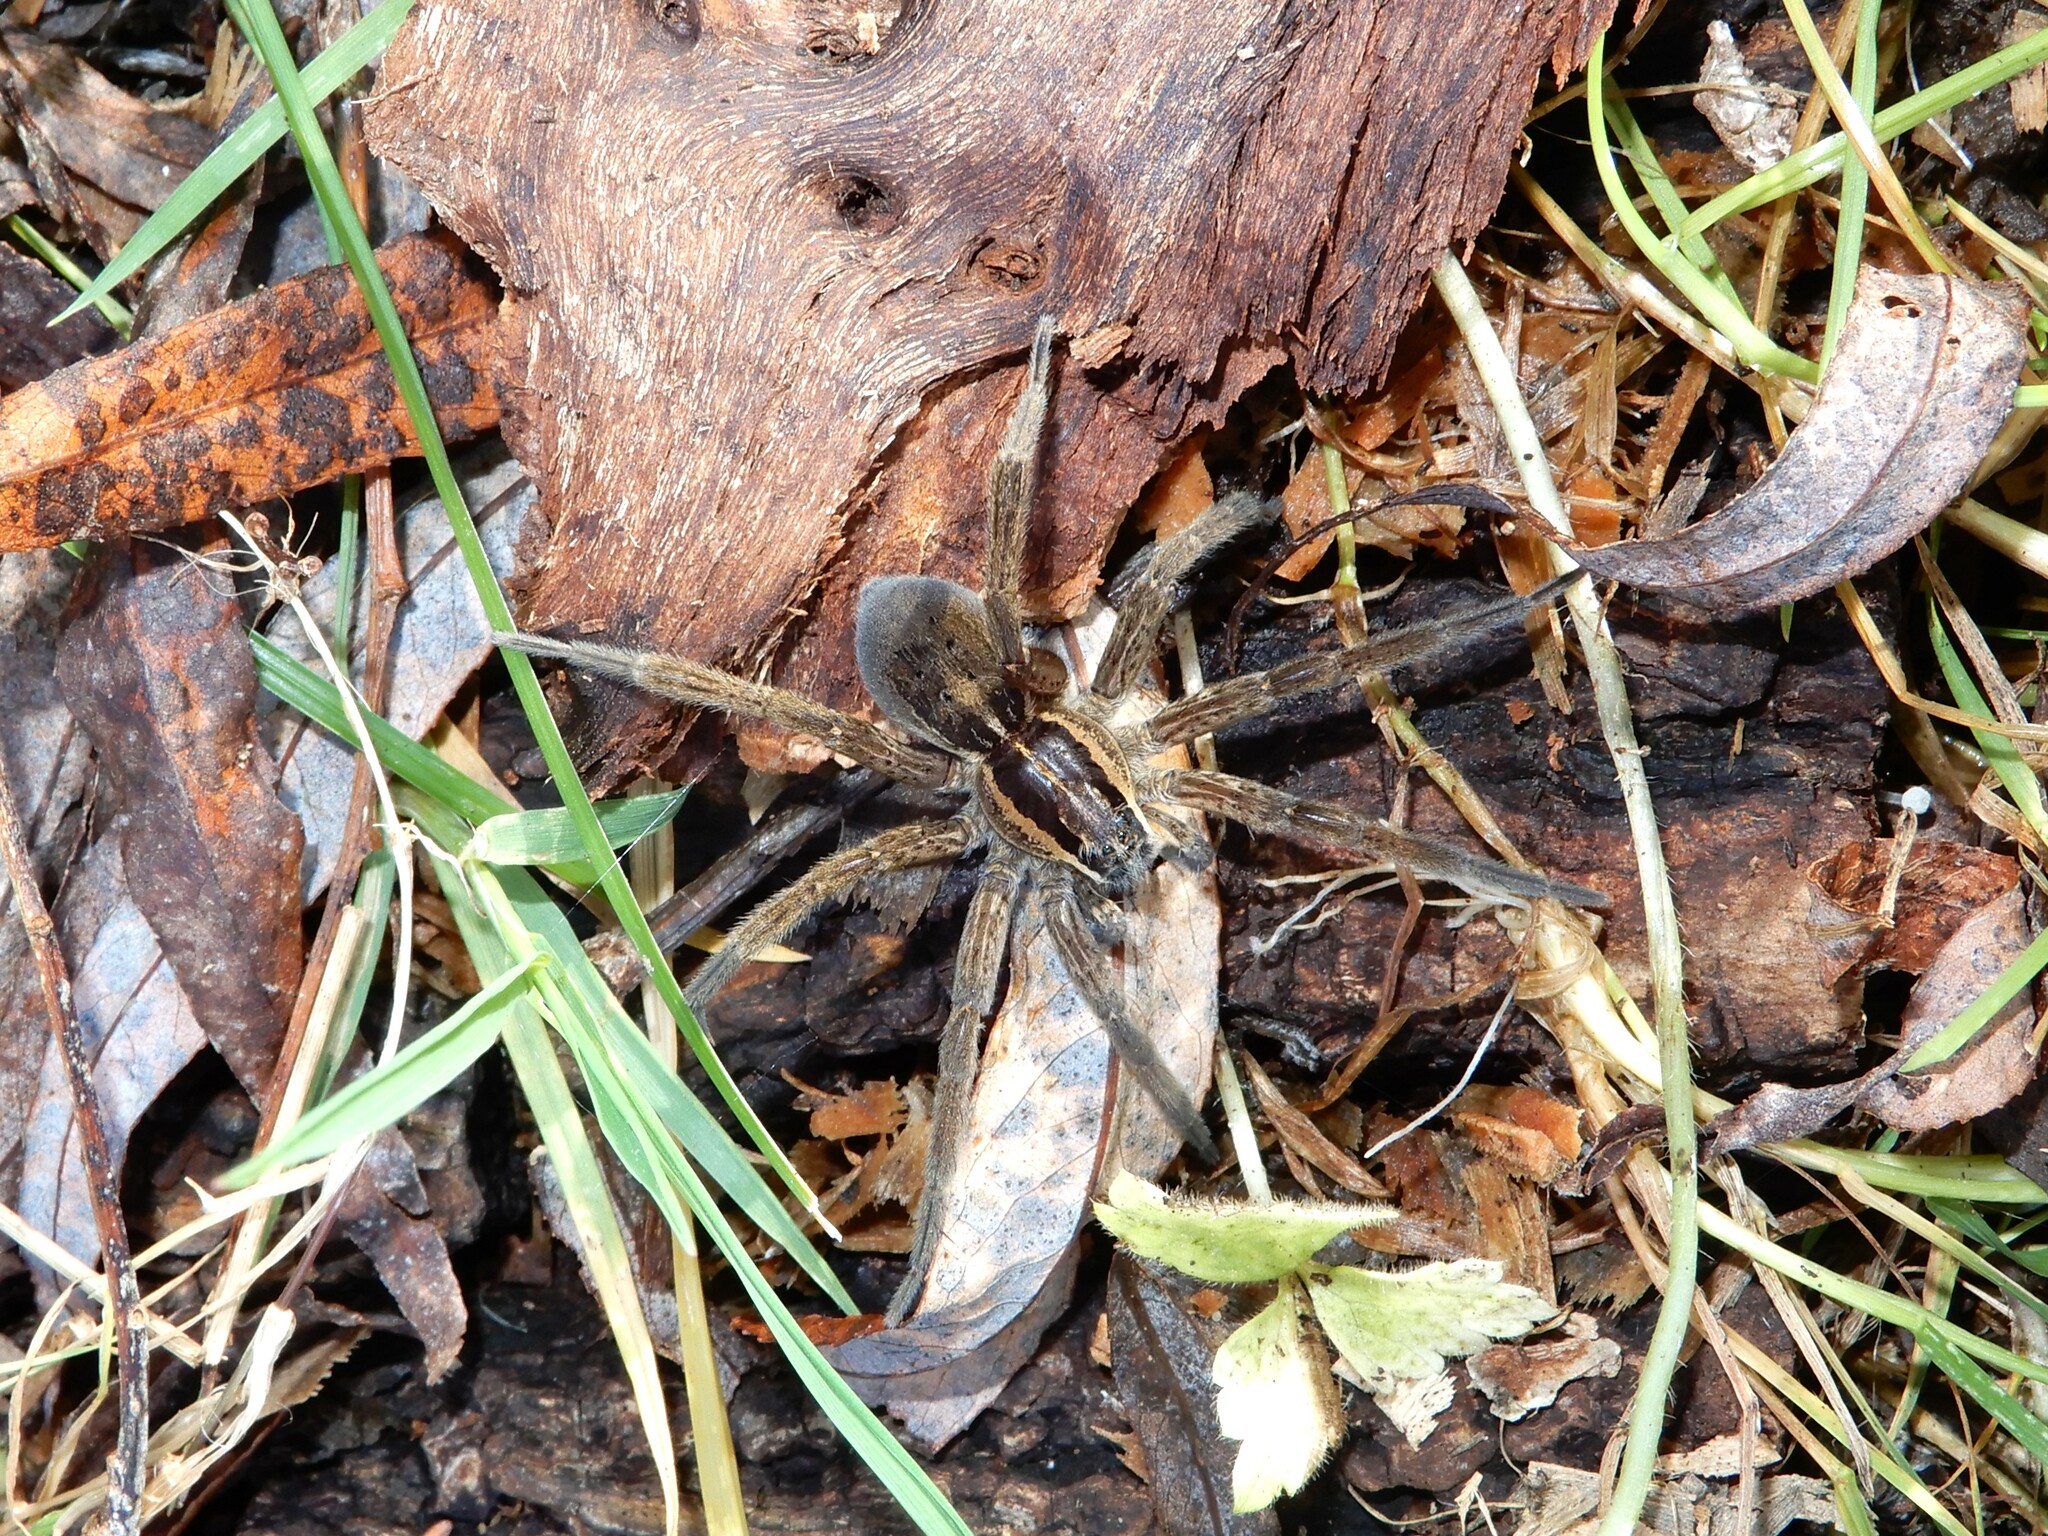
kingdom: Animalia
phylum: Arthropoda
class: Arachnida
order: Araneae
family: Pisauridae
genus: Dolomedes
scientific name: Dolomedes minor
